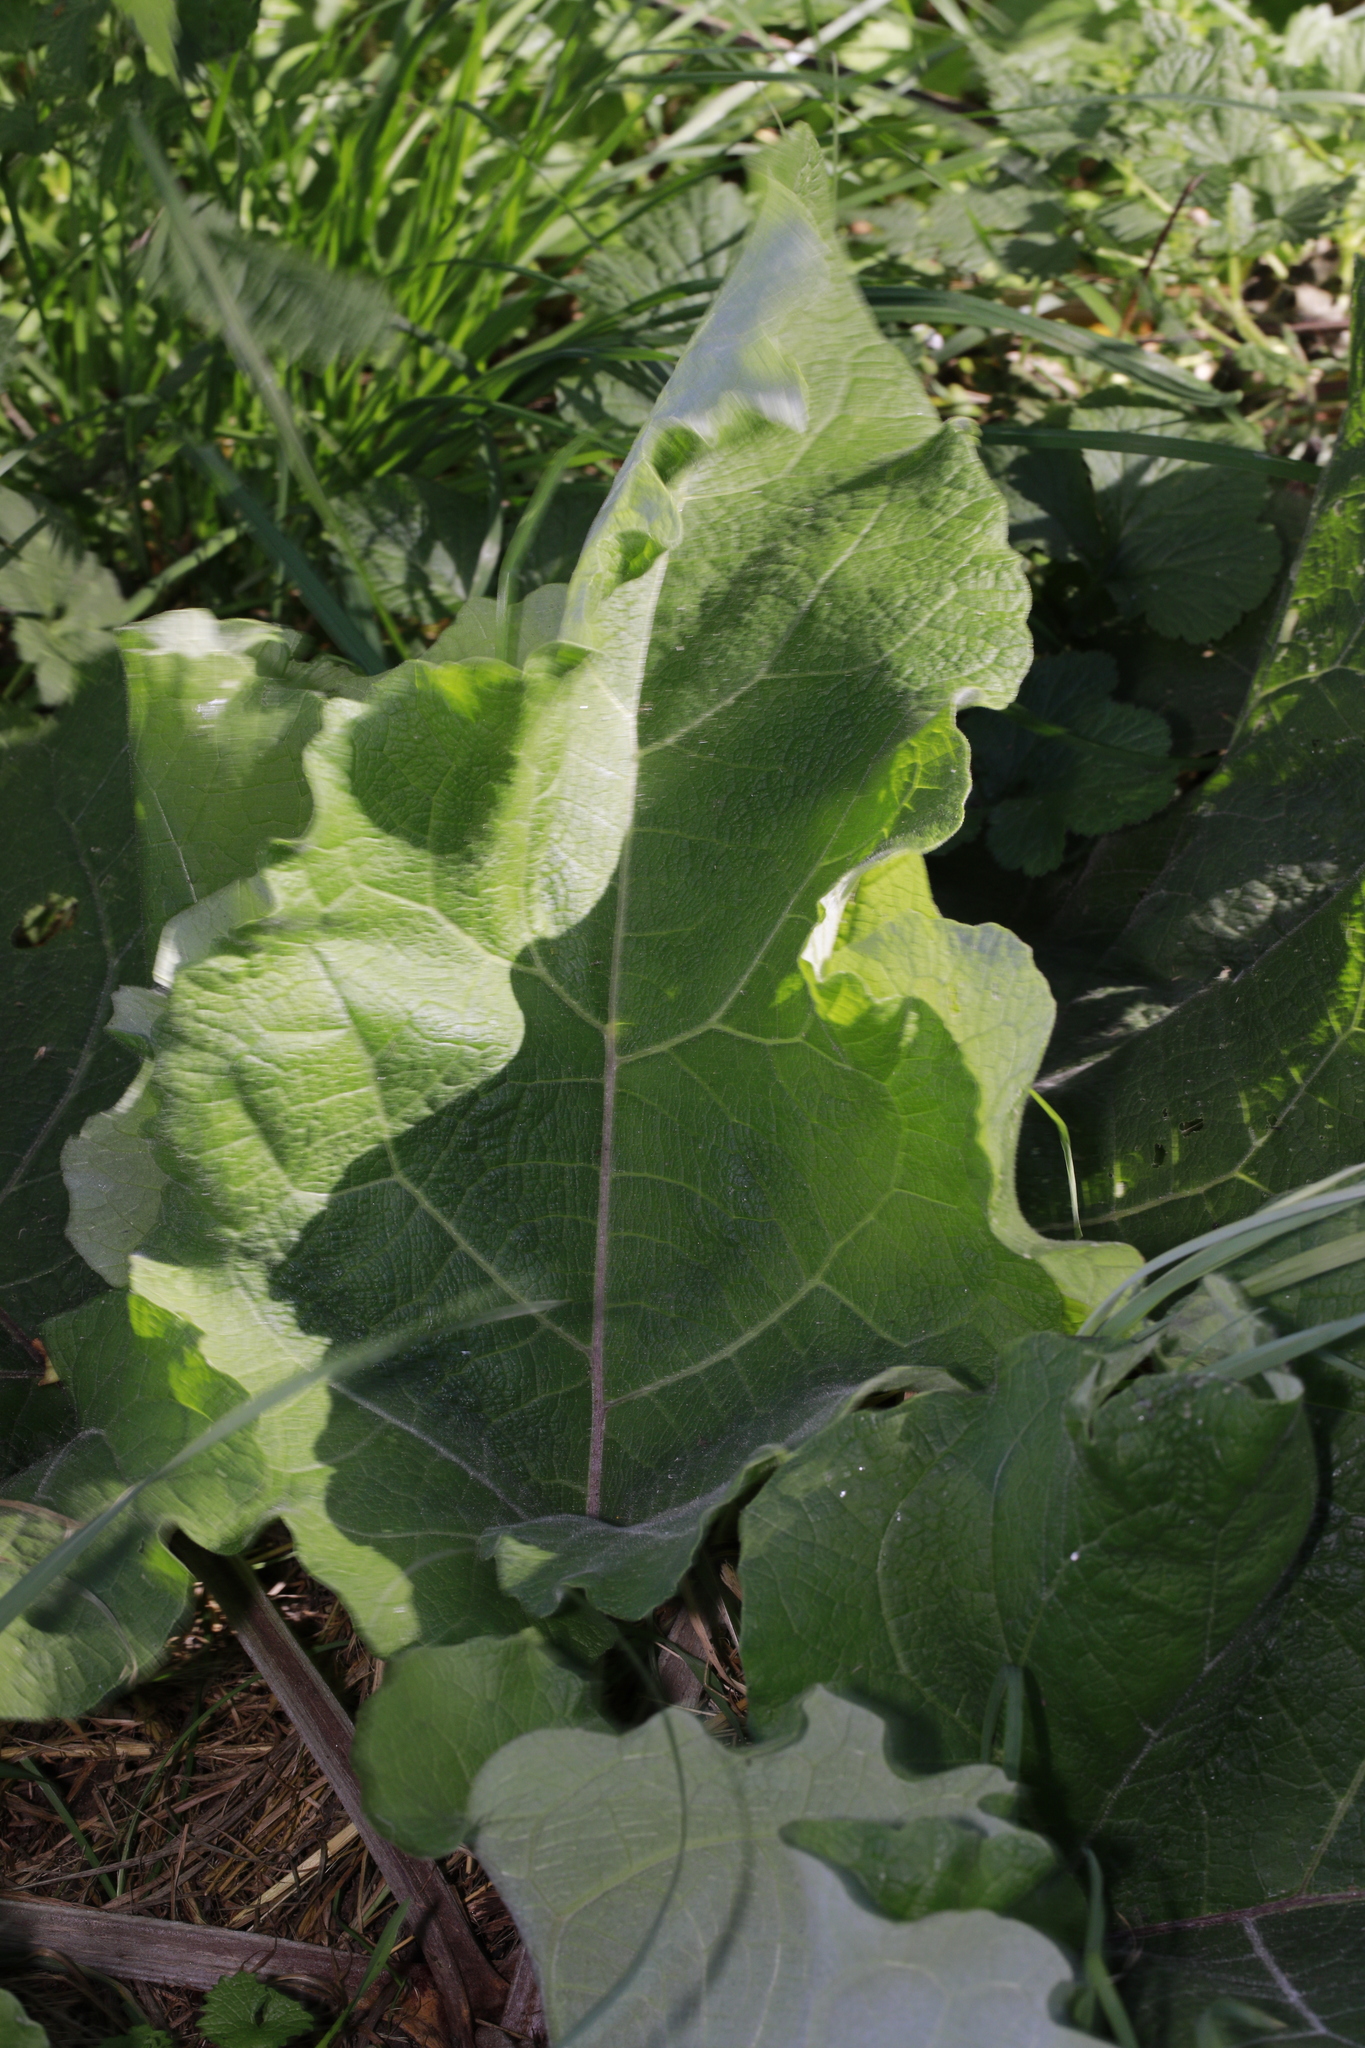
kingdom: Plantae
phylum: Tracheophyta
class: Magnoliopsida
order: Asterales
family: Asteraceae
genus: Arctium
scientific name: Arctium minus
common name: Lesser burdock
